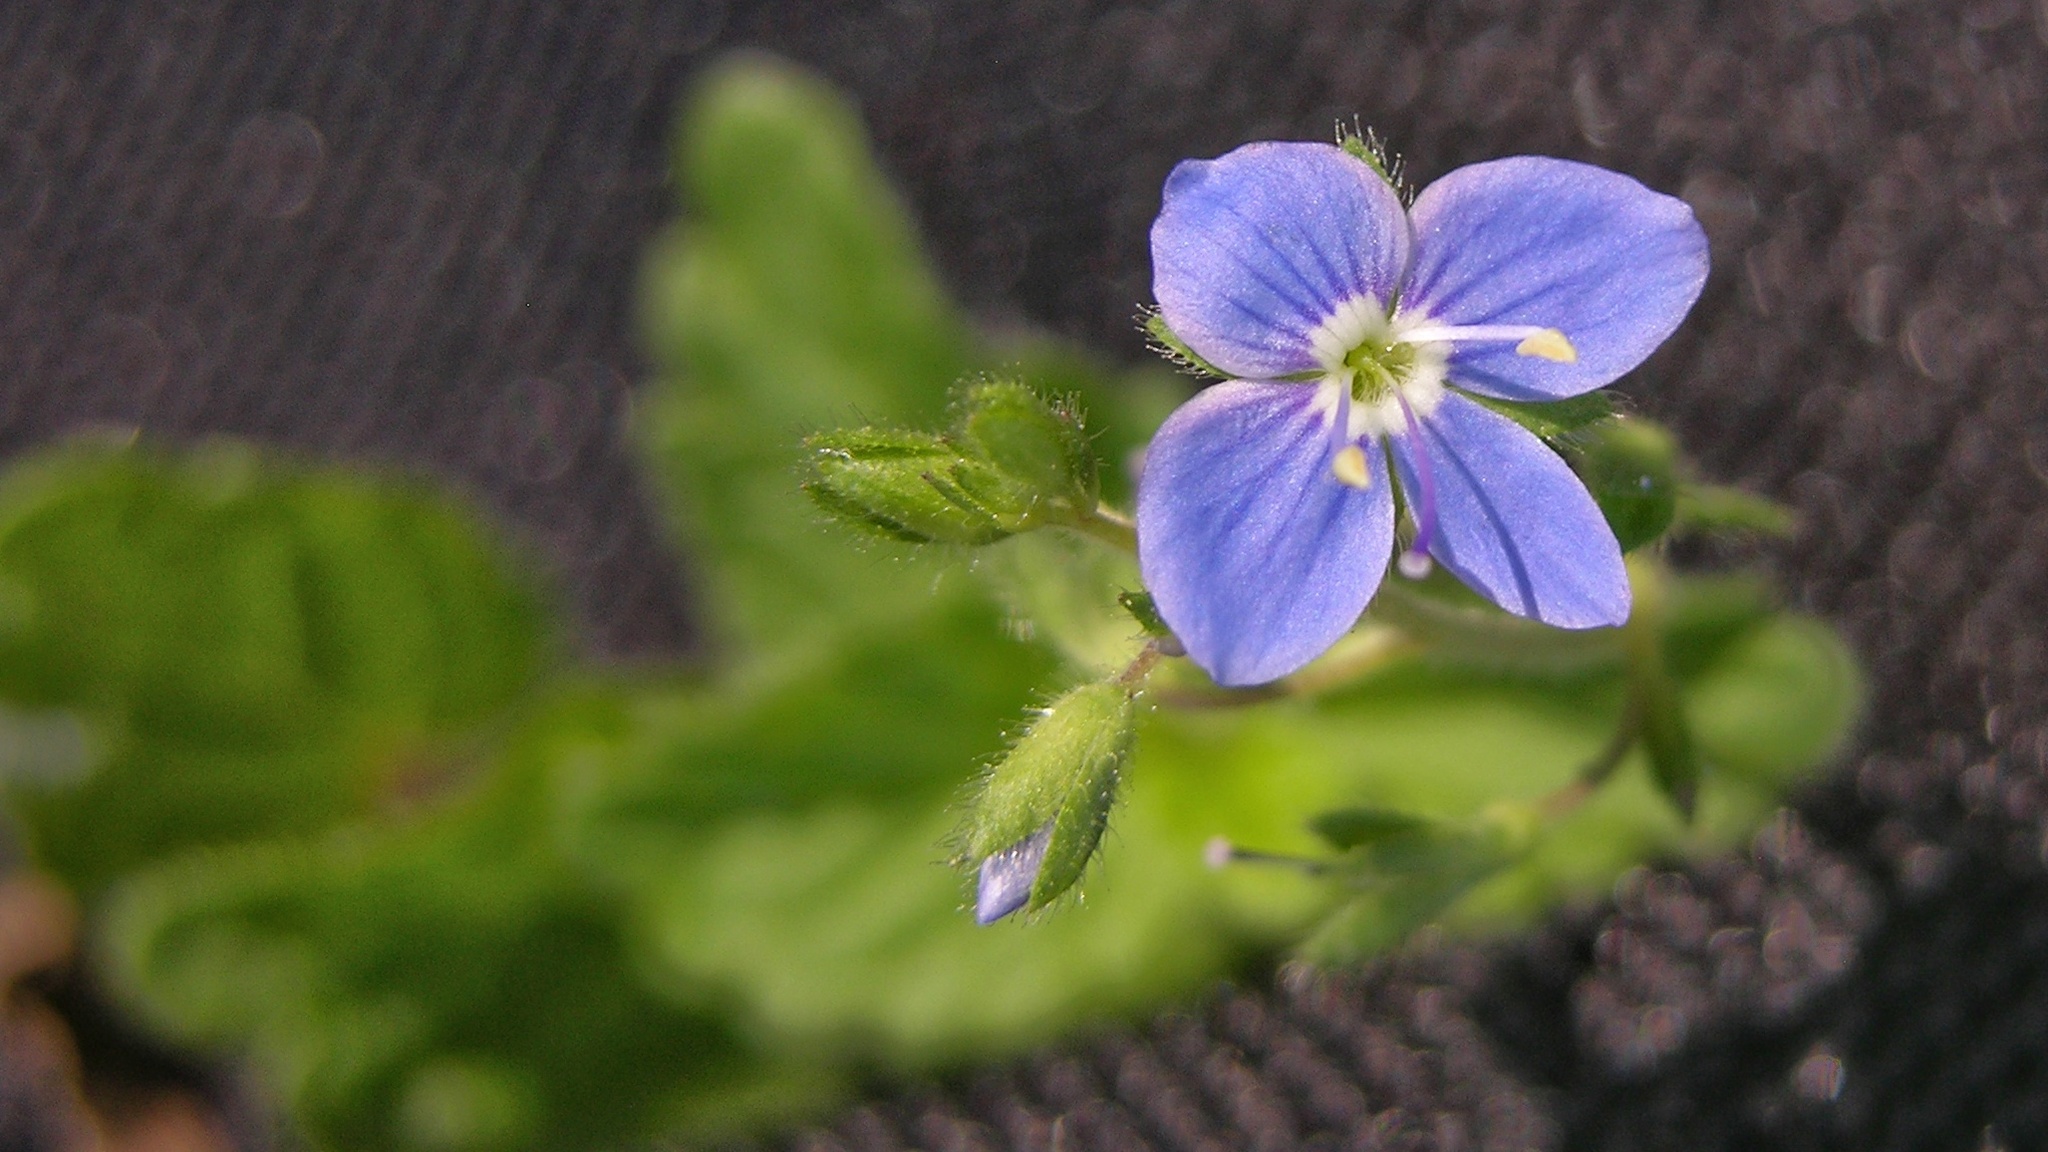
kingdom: Plantae
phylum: Tracheophyta
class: Magnoliopsida
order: Lamiales
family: Plantaginaceae
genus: Veronica
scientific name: Veronica chamaedrys
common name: Germander speedwell
